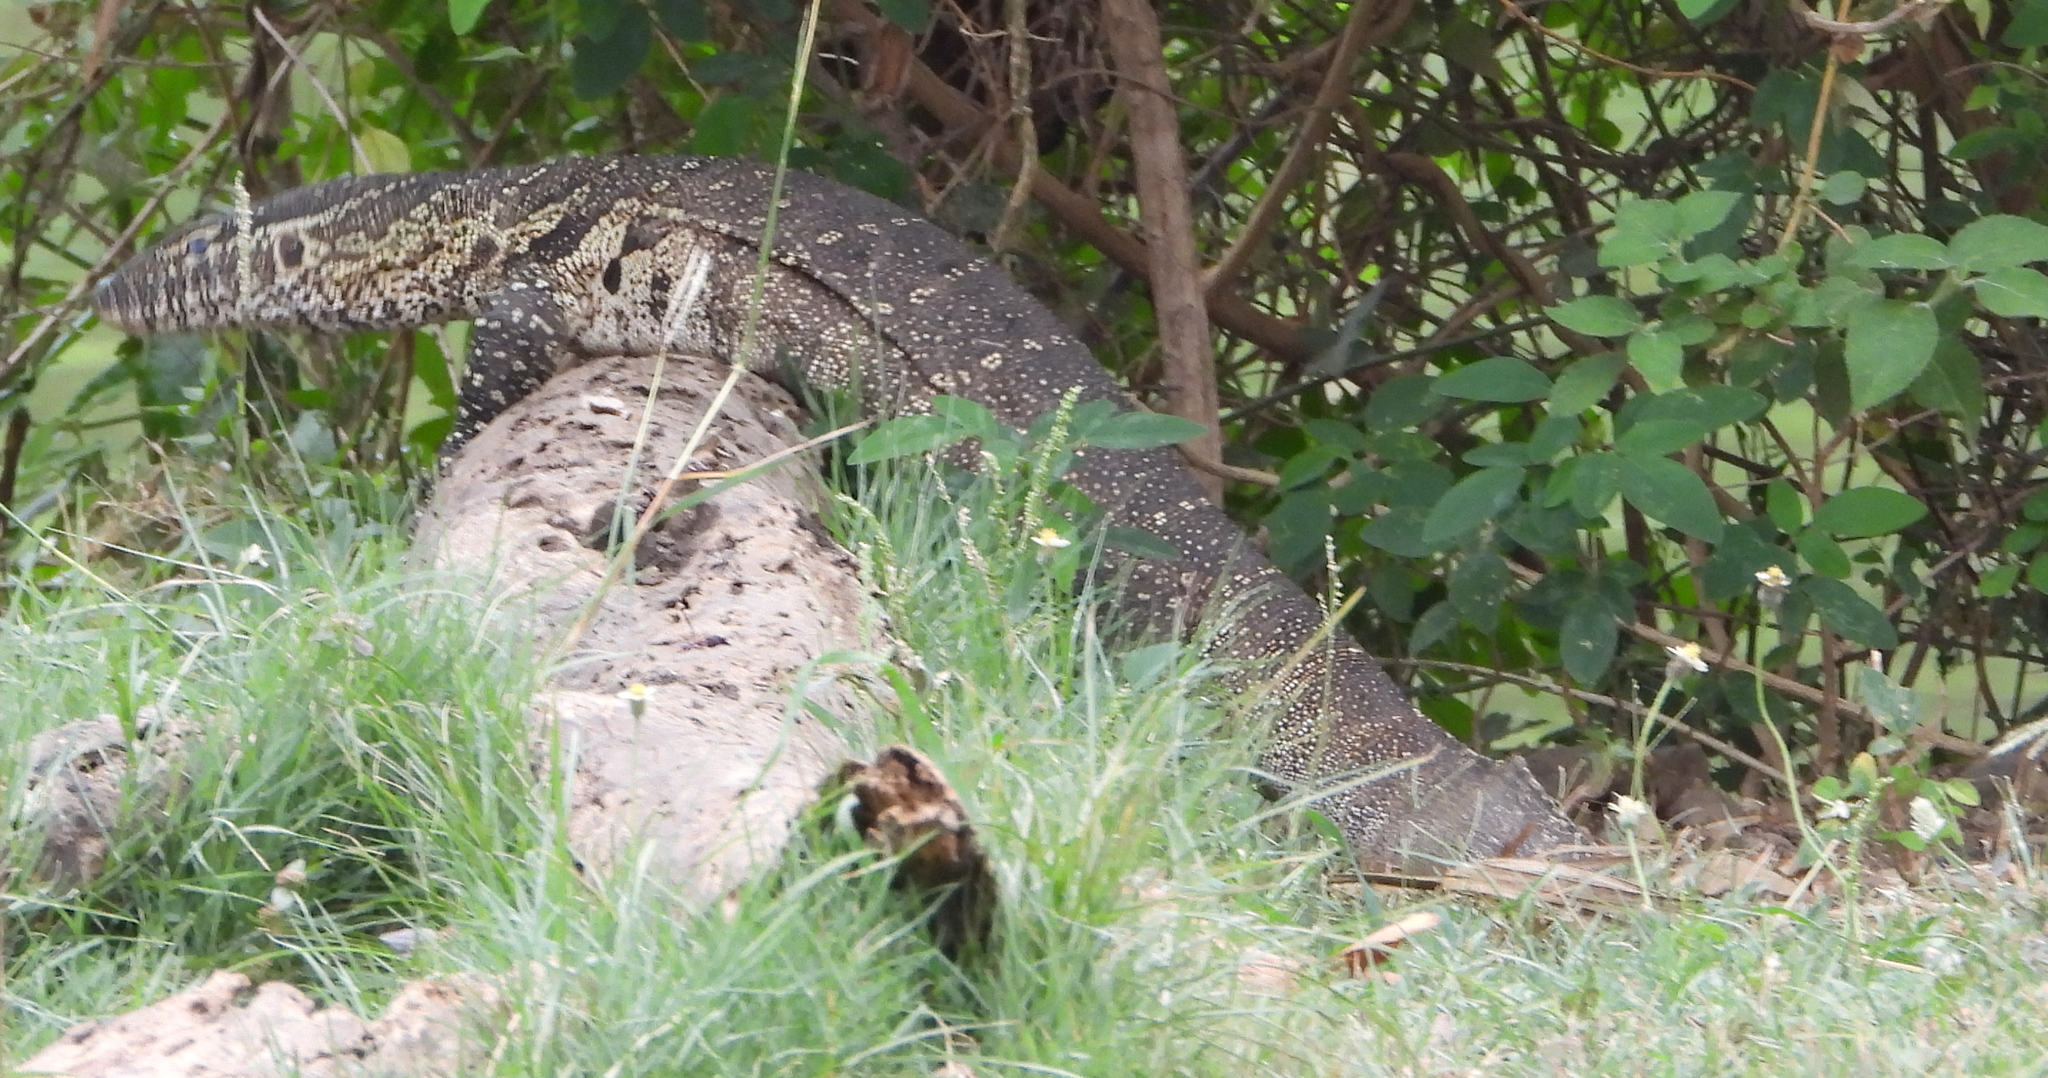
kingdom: Animalia
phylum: Chordata
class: Squamata
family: Varanidae
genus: Varanus
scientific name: Varanus niloticus
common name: Nile monitor
